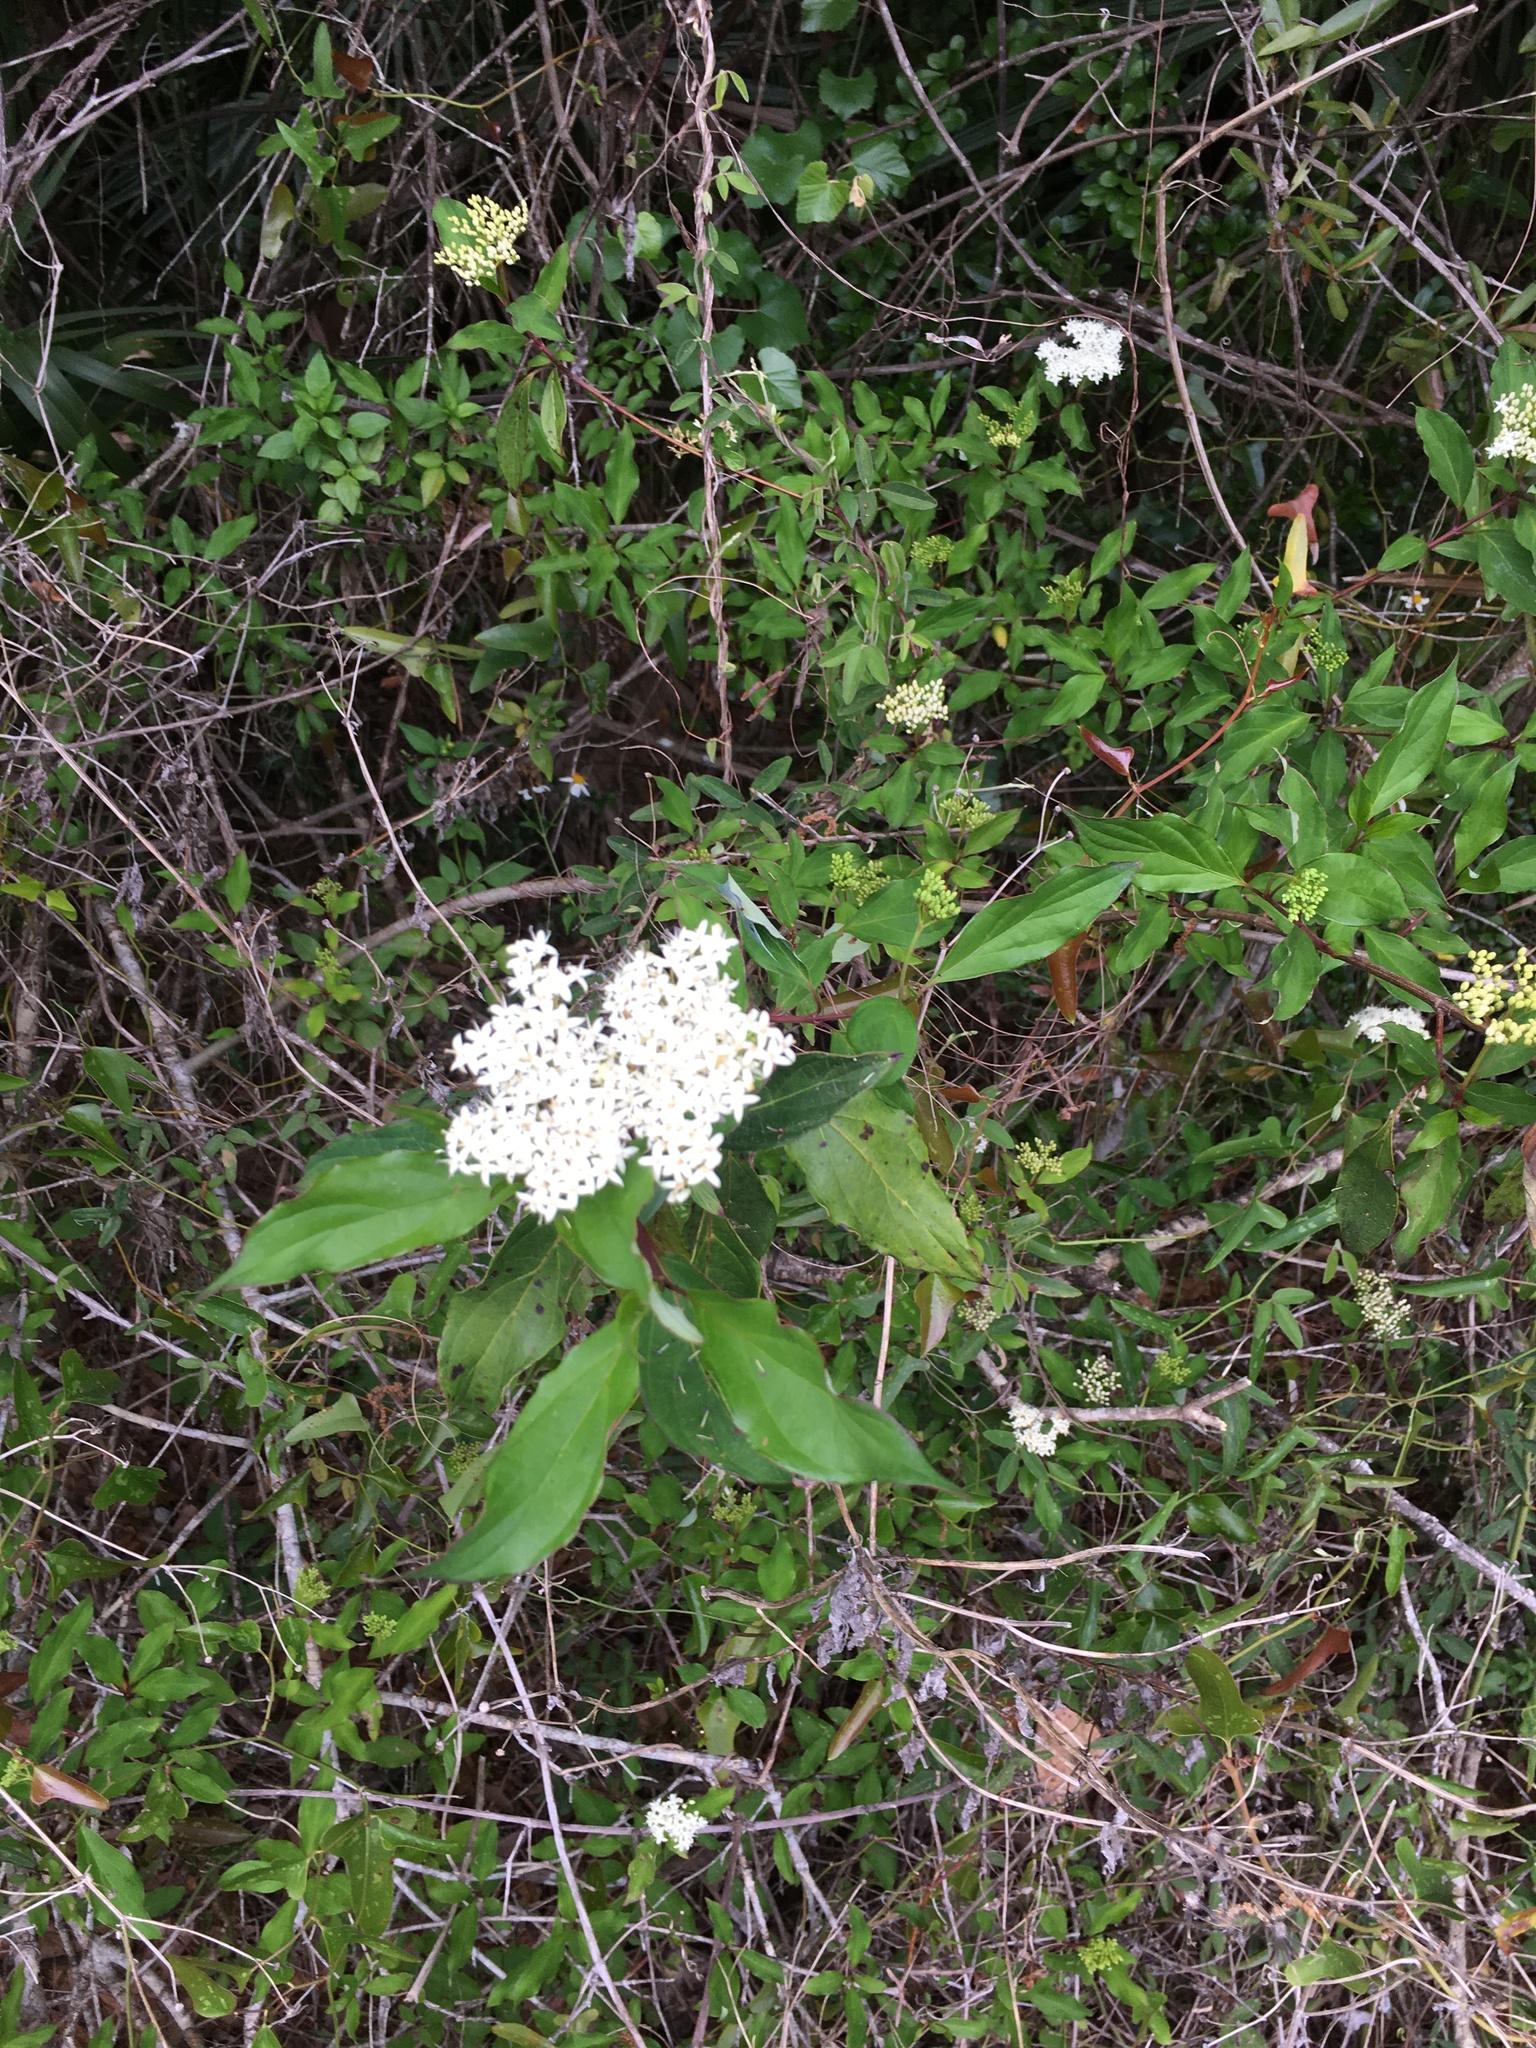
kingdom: Plantae
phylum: Tracheophyta
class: Magnoliopsida
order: Cornales
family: Cornaceae
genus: Cornus
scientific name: Cornus foemina
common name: Swamp dogwood
